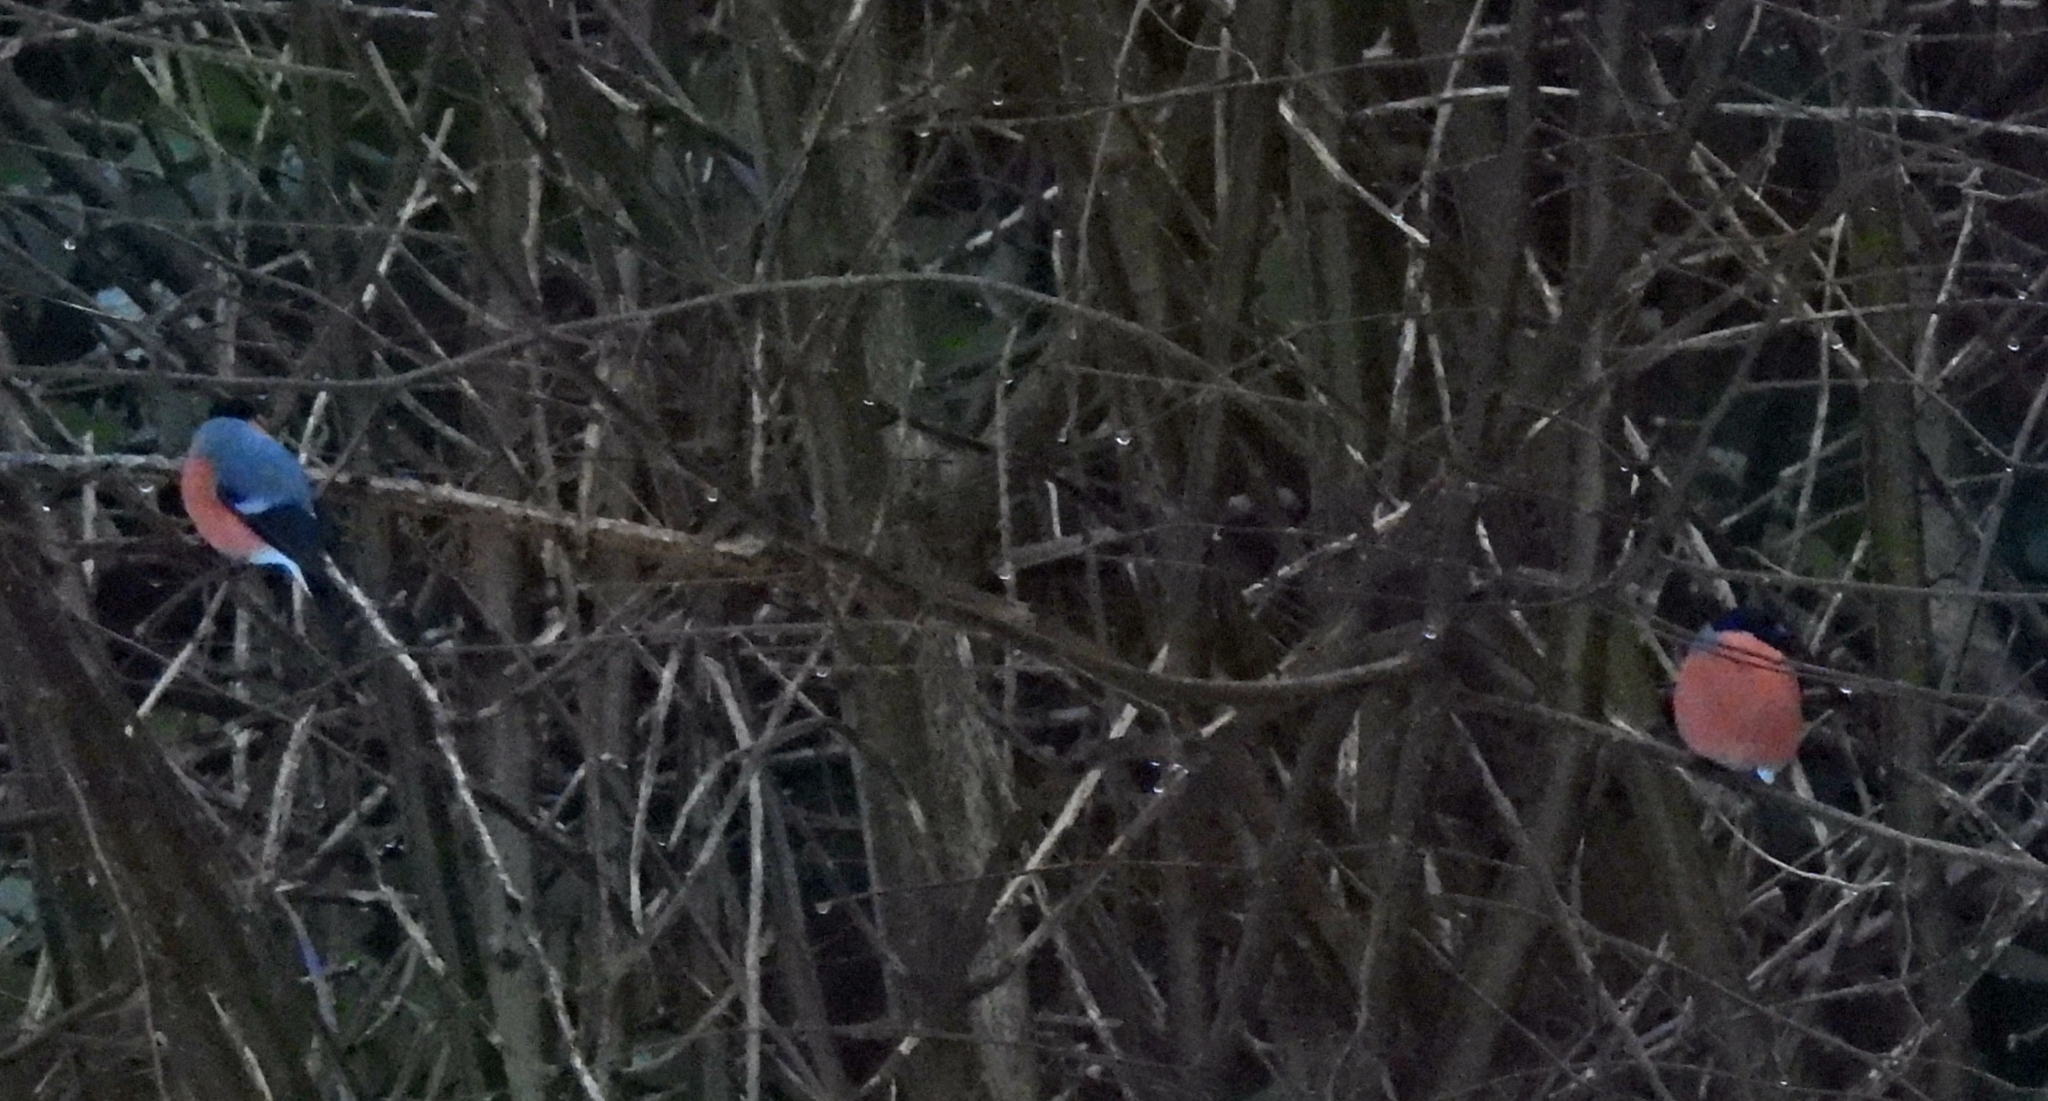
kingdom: Animalia
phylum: Chordata
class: Aves
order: Passeriformes
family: Fringillidae
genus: Pyrrhula
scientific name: Pyrrhula pyrrhula
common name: Eurasian bullfinch
